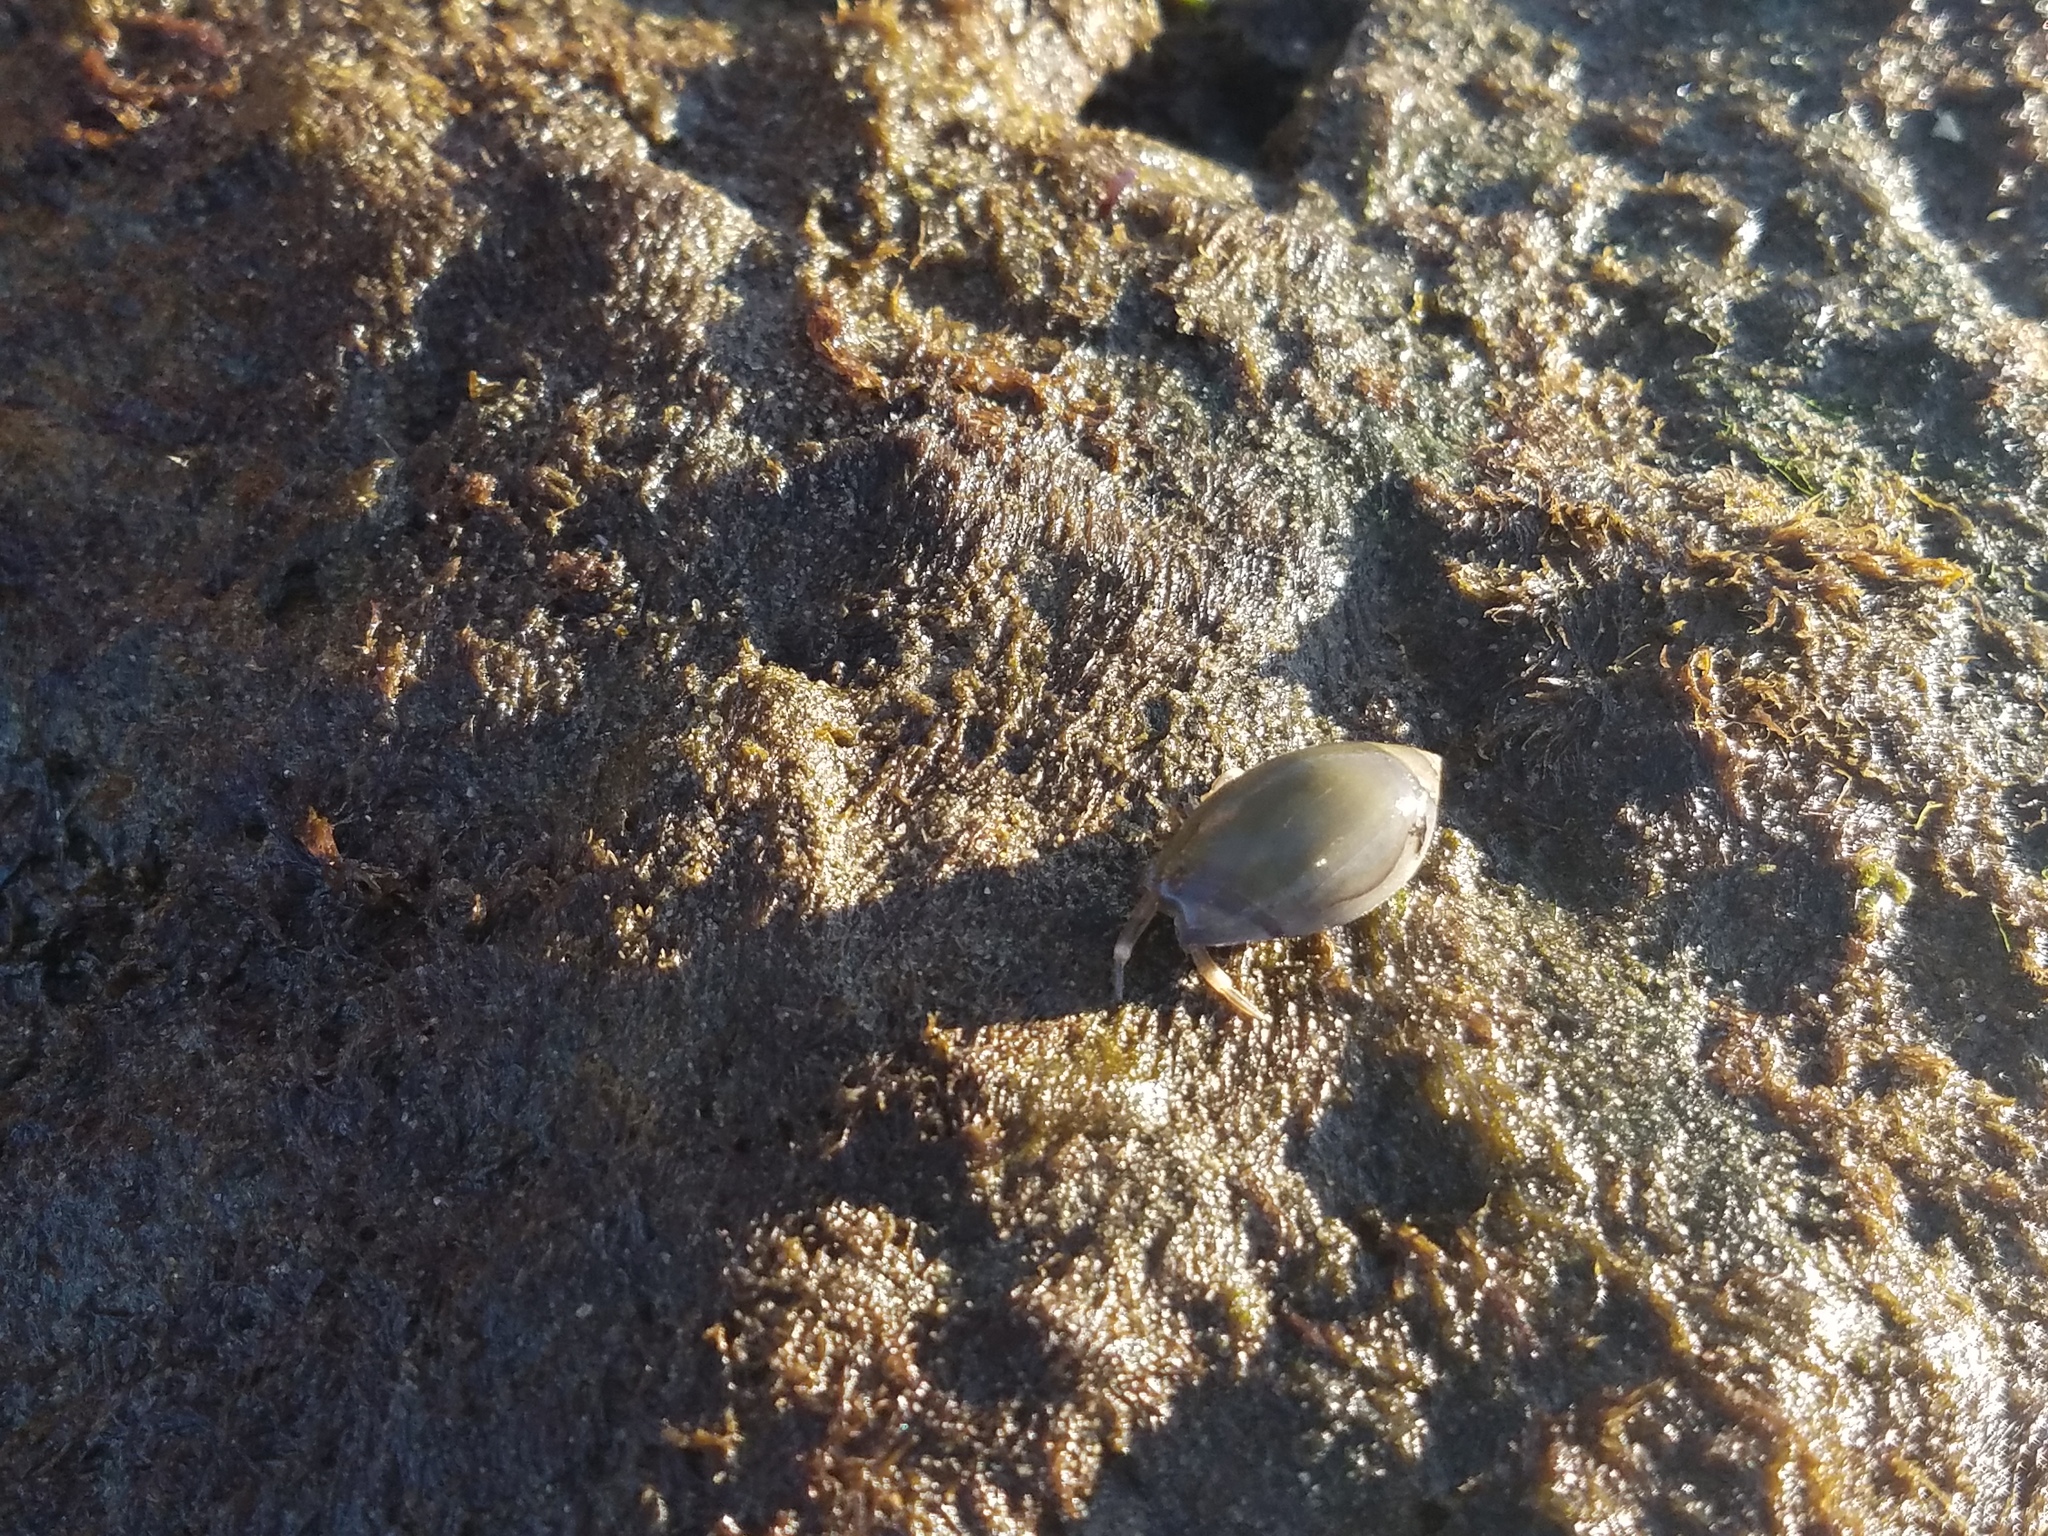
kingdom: Animalia
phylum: Arthropoda
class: Malacostraca
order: Decapoda
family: Paguridae
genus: Pagurus
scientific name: Pagurus venturensis
